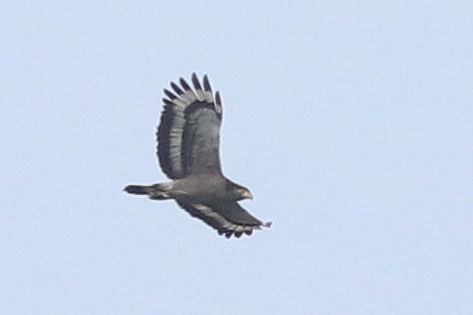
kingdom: Animalia
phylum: Chordata
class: Aves
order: Accipitriformes
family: Accipitridae
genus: Spilornis
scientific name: Spilornis cheela
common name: Crested serpent eagle
